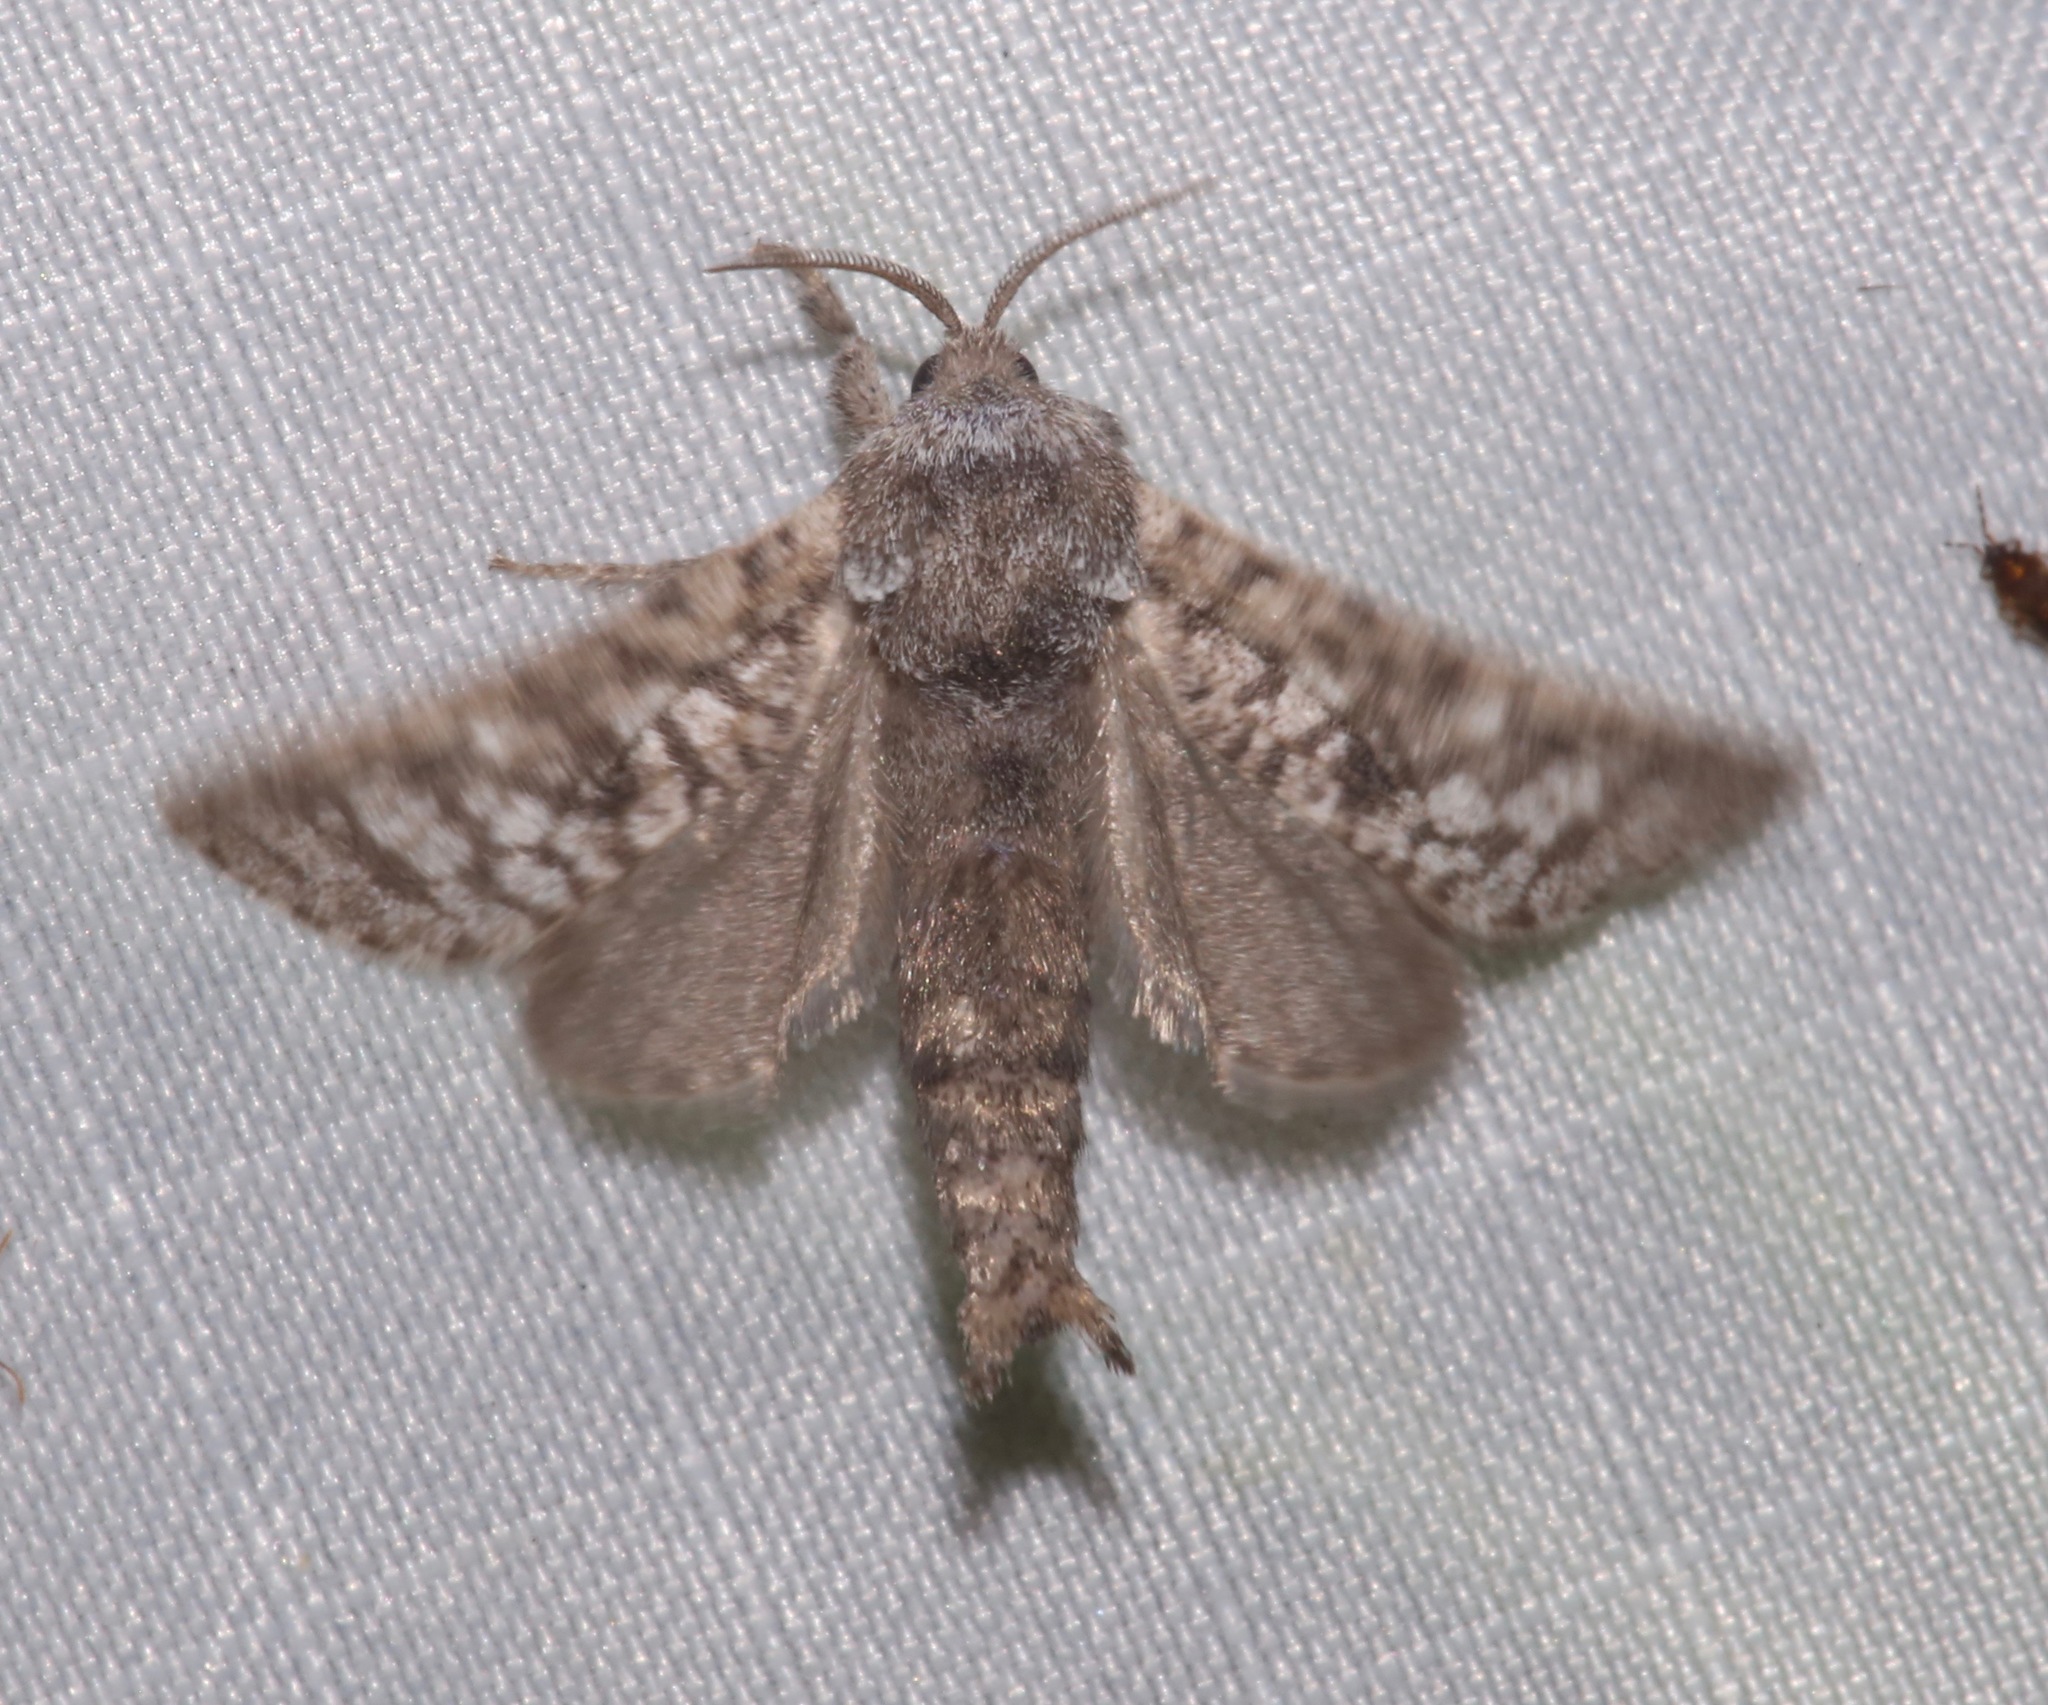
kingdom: Animalia
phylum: Arthropoda
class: Insecta
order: Lepidoptera
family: Cossidae
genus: Givira
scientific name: Givira francesca
